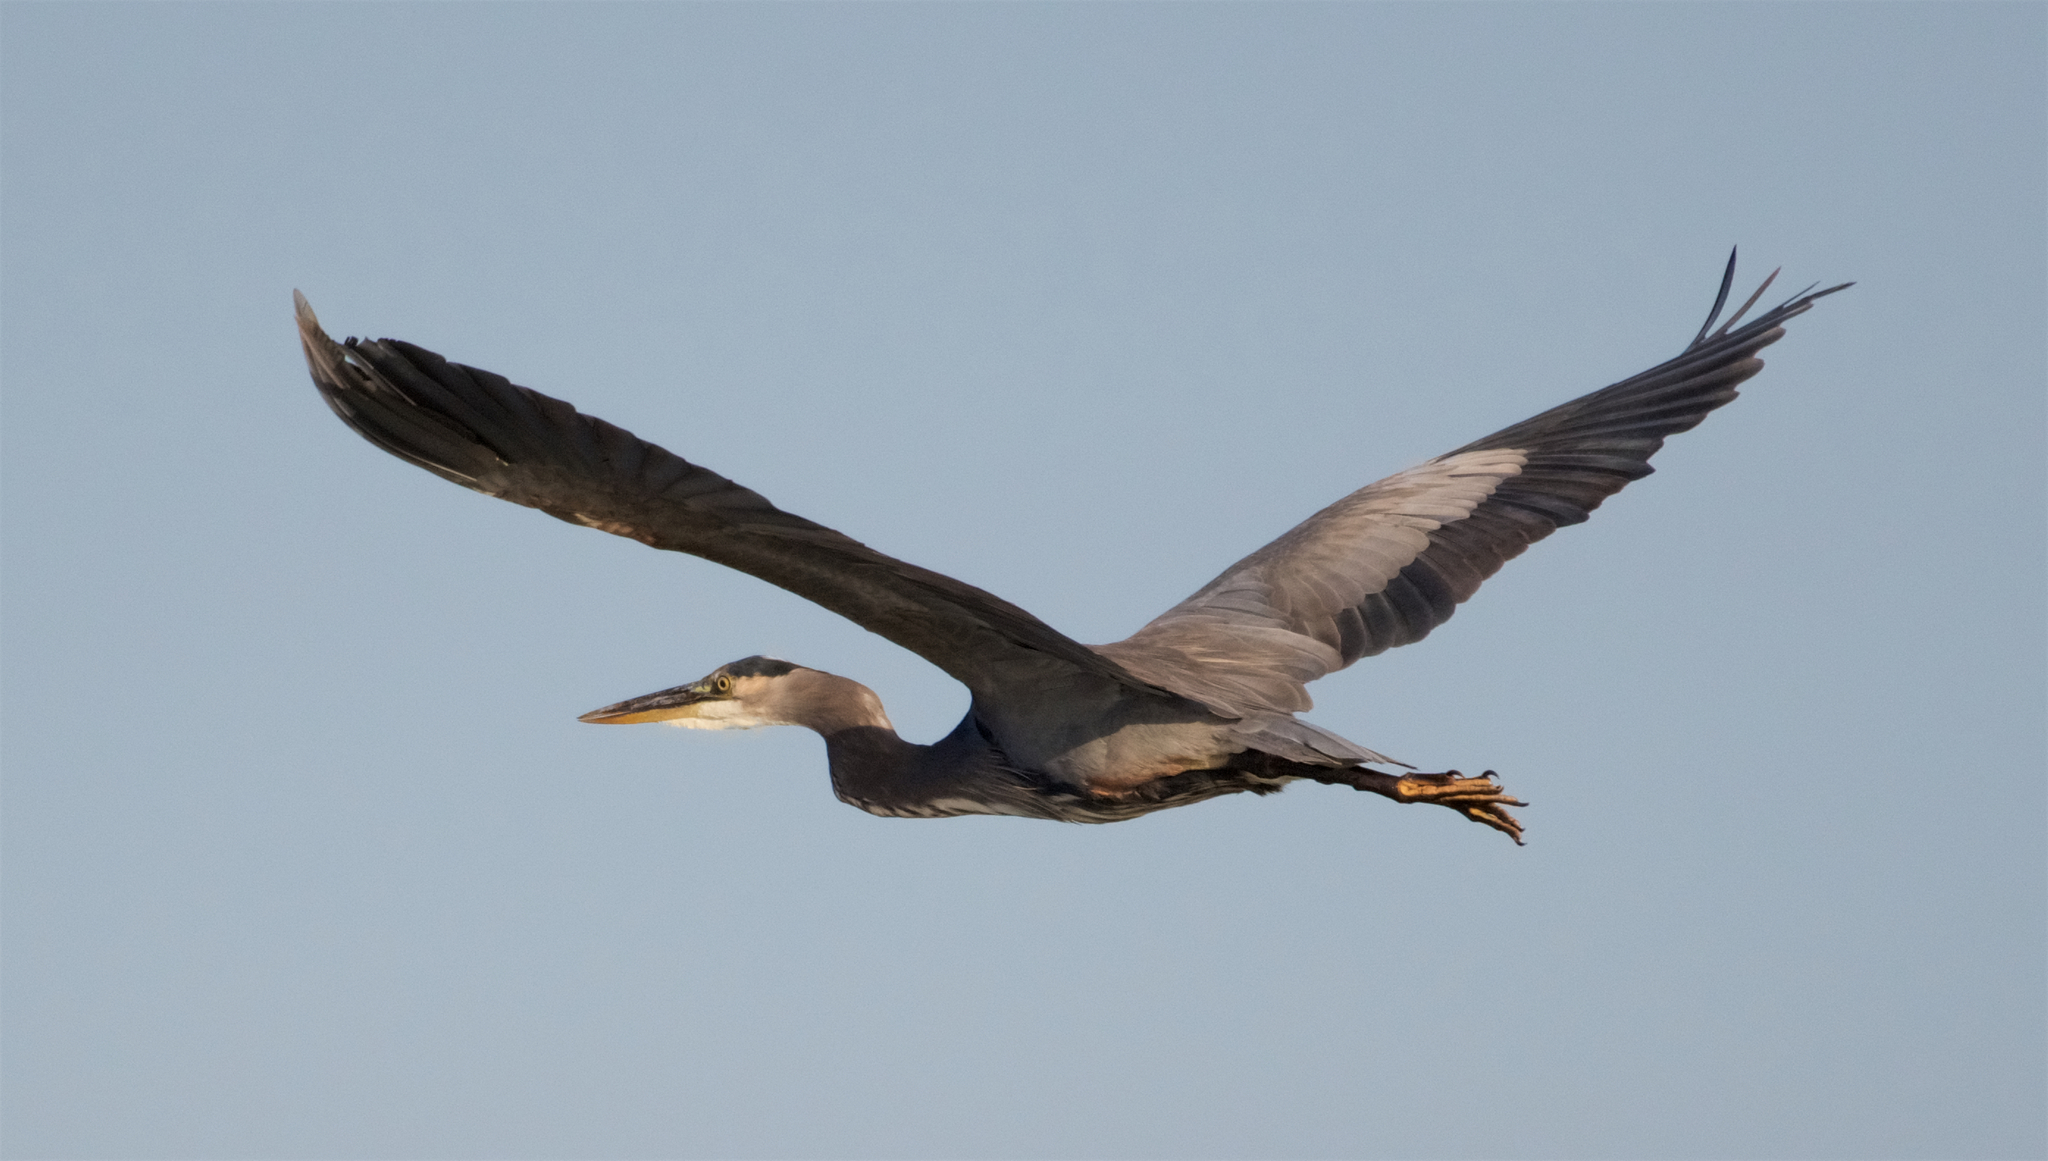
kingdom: Animalia
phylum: Chordata
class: Aves
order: Pelecaniformes
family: Ardeidae
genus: Ardea
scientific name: Ardea herodias
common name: Great blue heron
